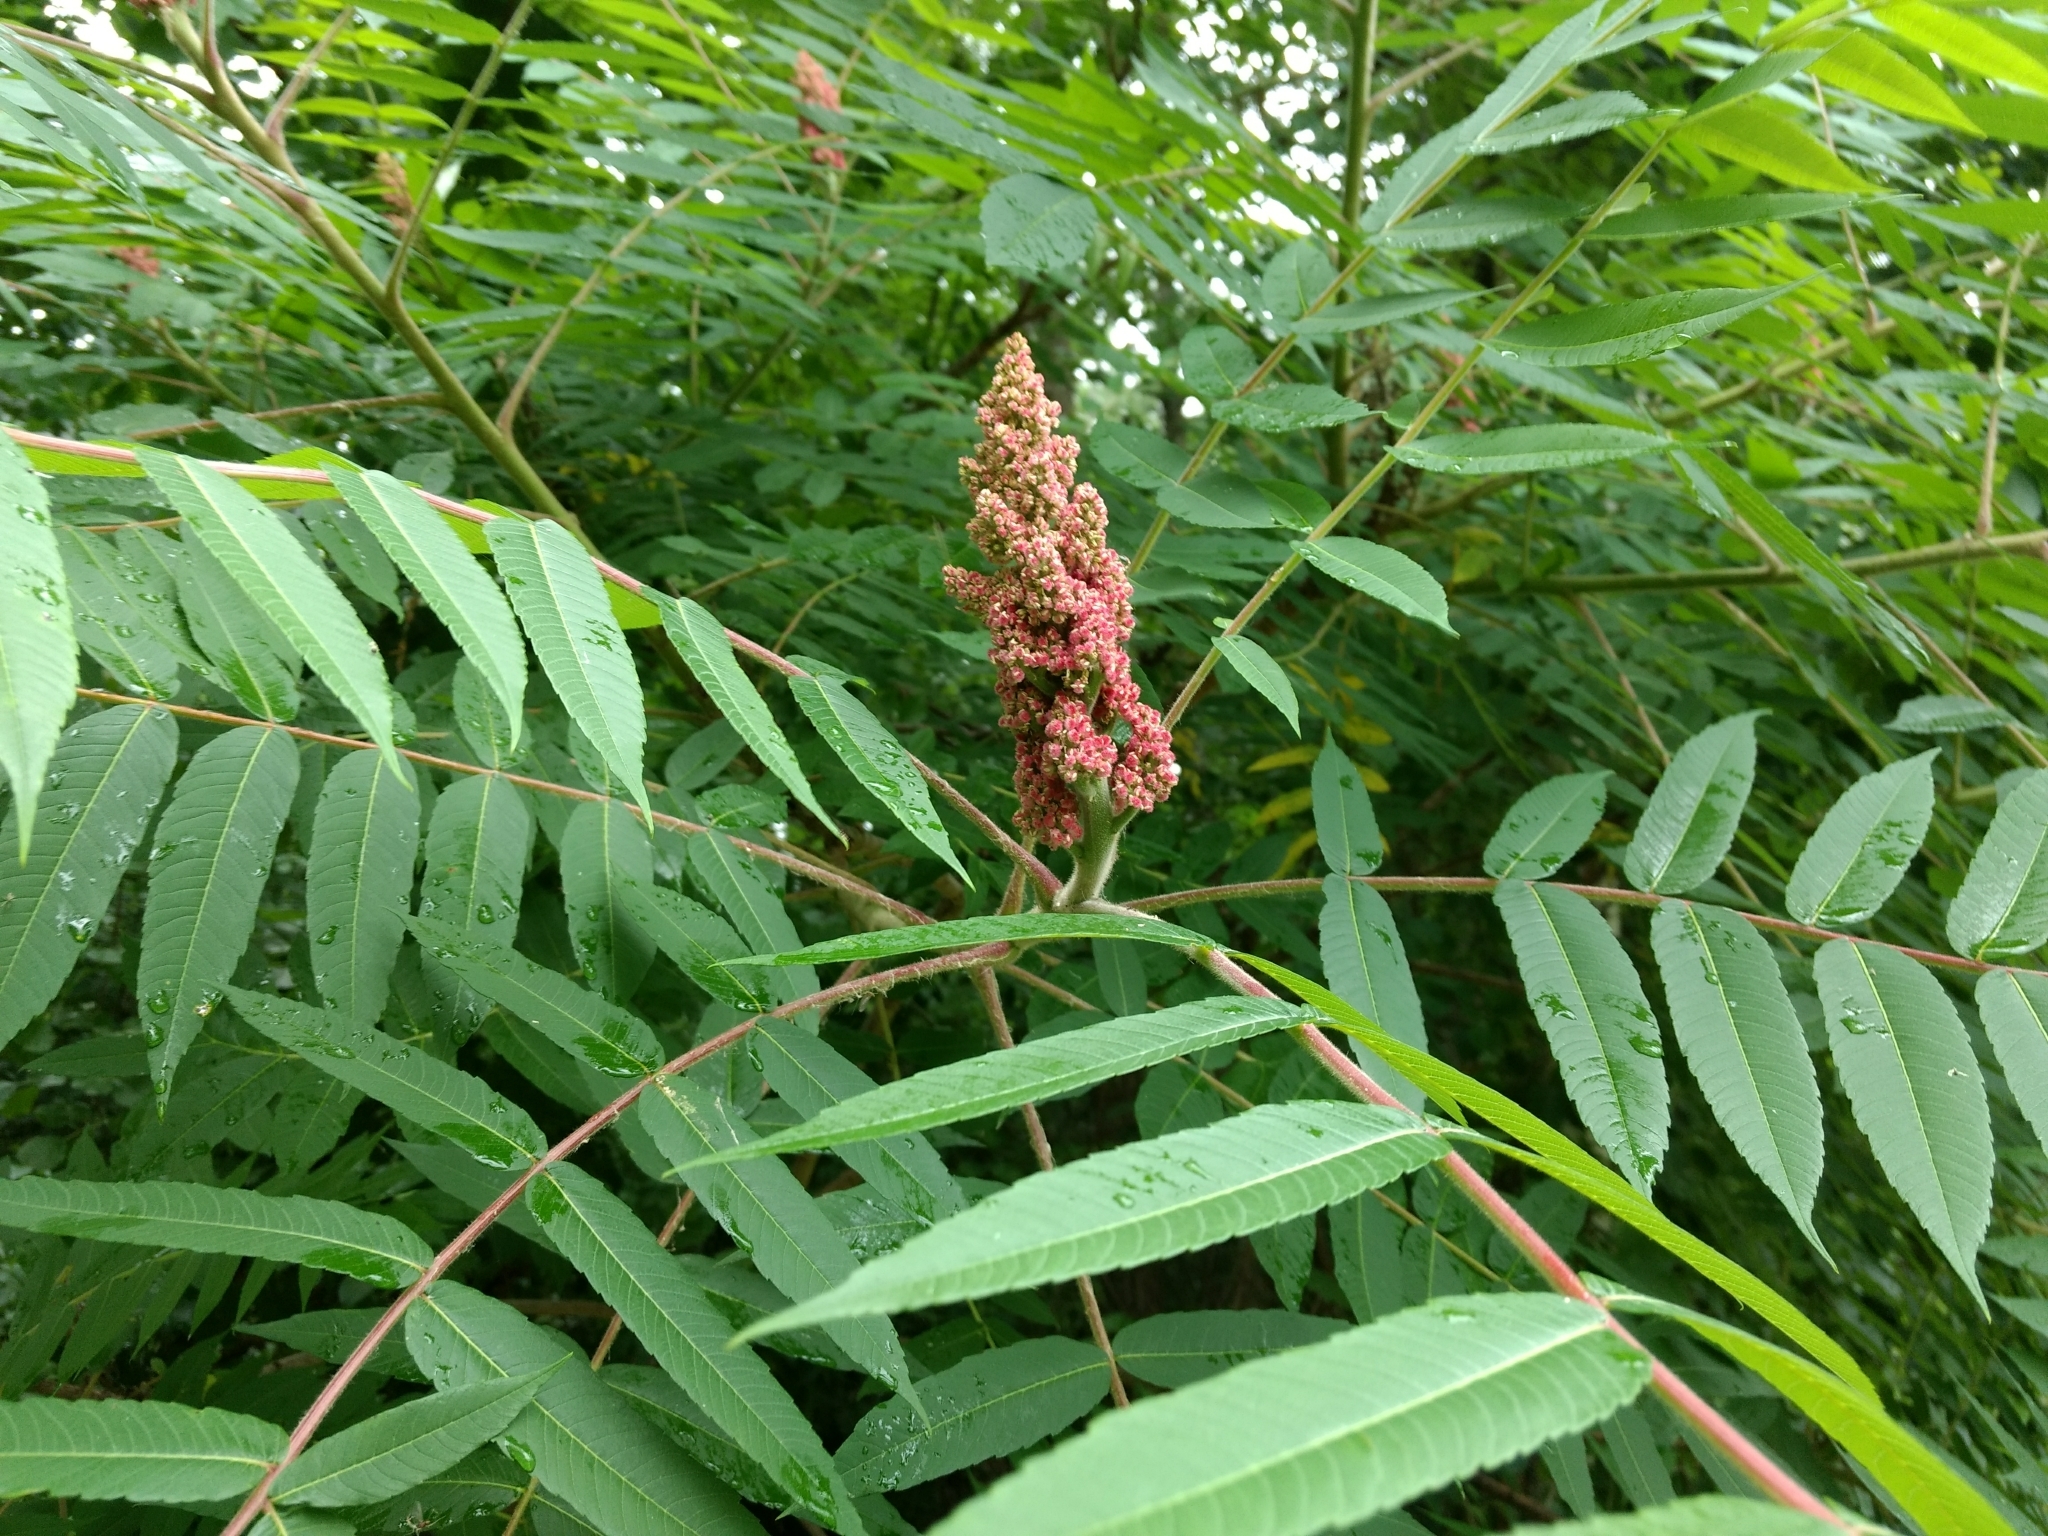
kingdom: Plantae
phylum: Tracheophyta
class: Magnoliopsida
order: Sapindales
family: Anacardiaceae
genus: Rhus
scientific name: Rhus typhina
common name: Staghorn sumac
